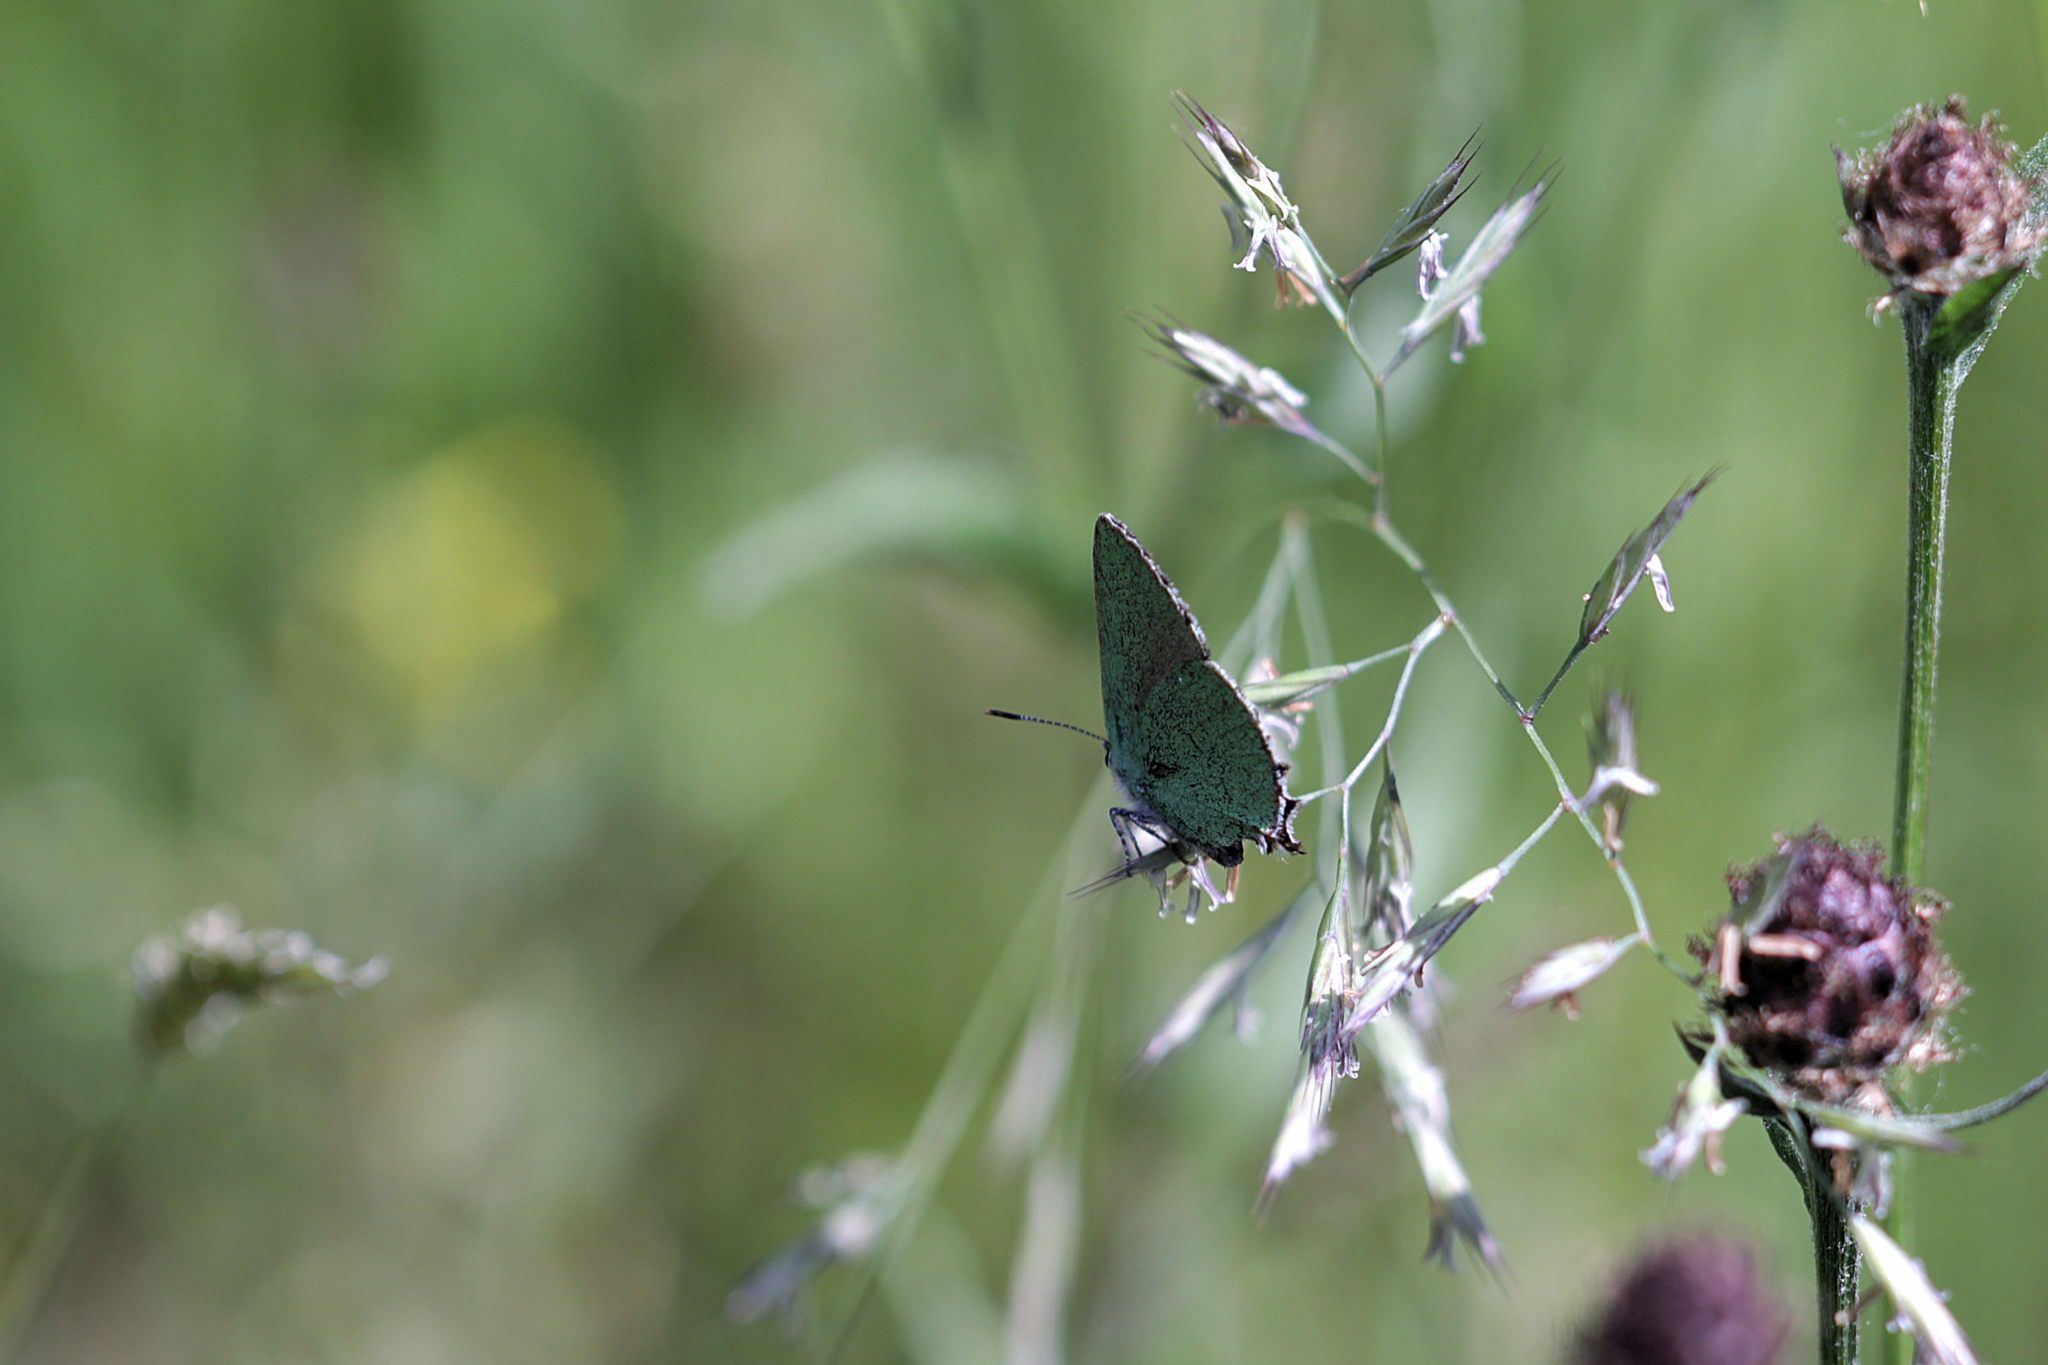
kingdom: Animalia
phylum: Arthropoda
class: Insecta
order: Lepidoptera
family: Lycaenidae
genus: Callophrys
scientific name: Callophrys rubi
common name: Green hairstreak
